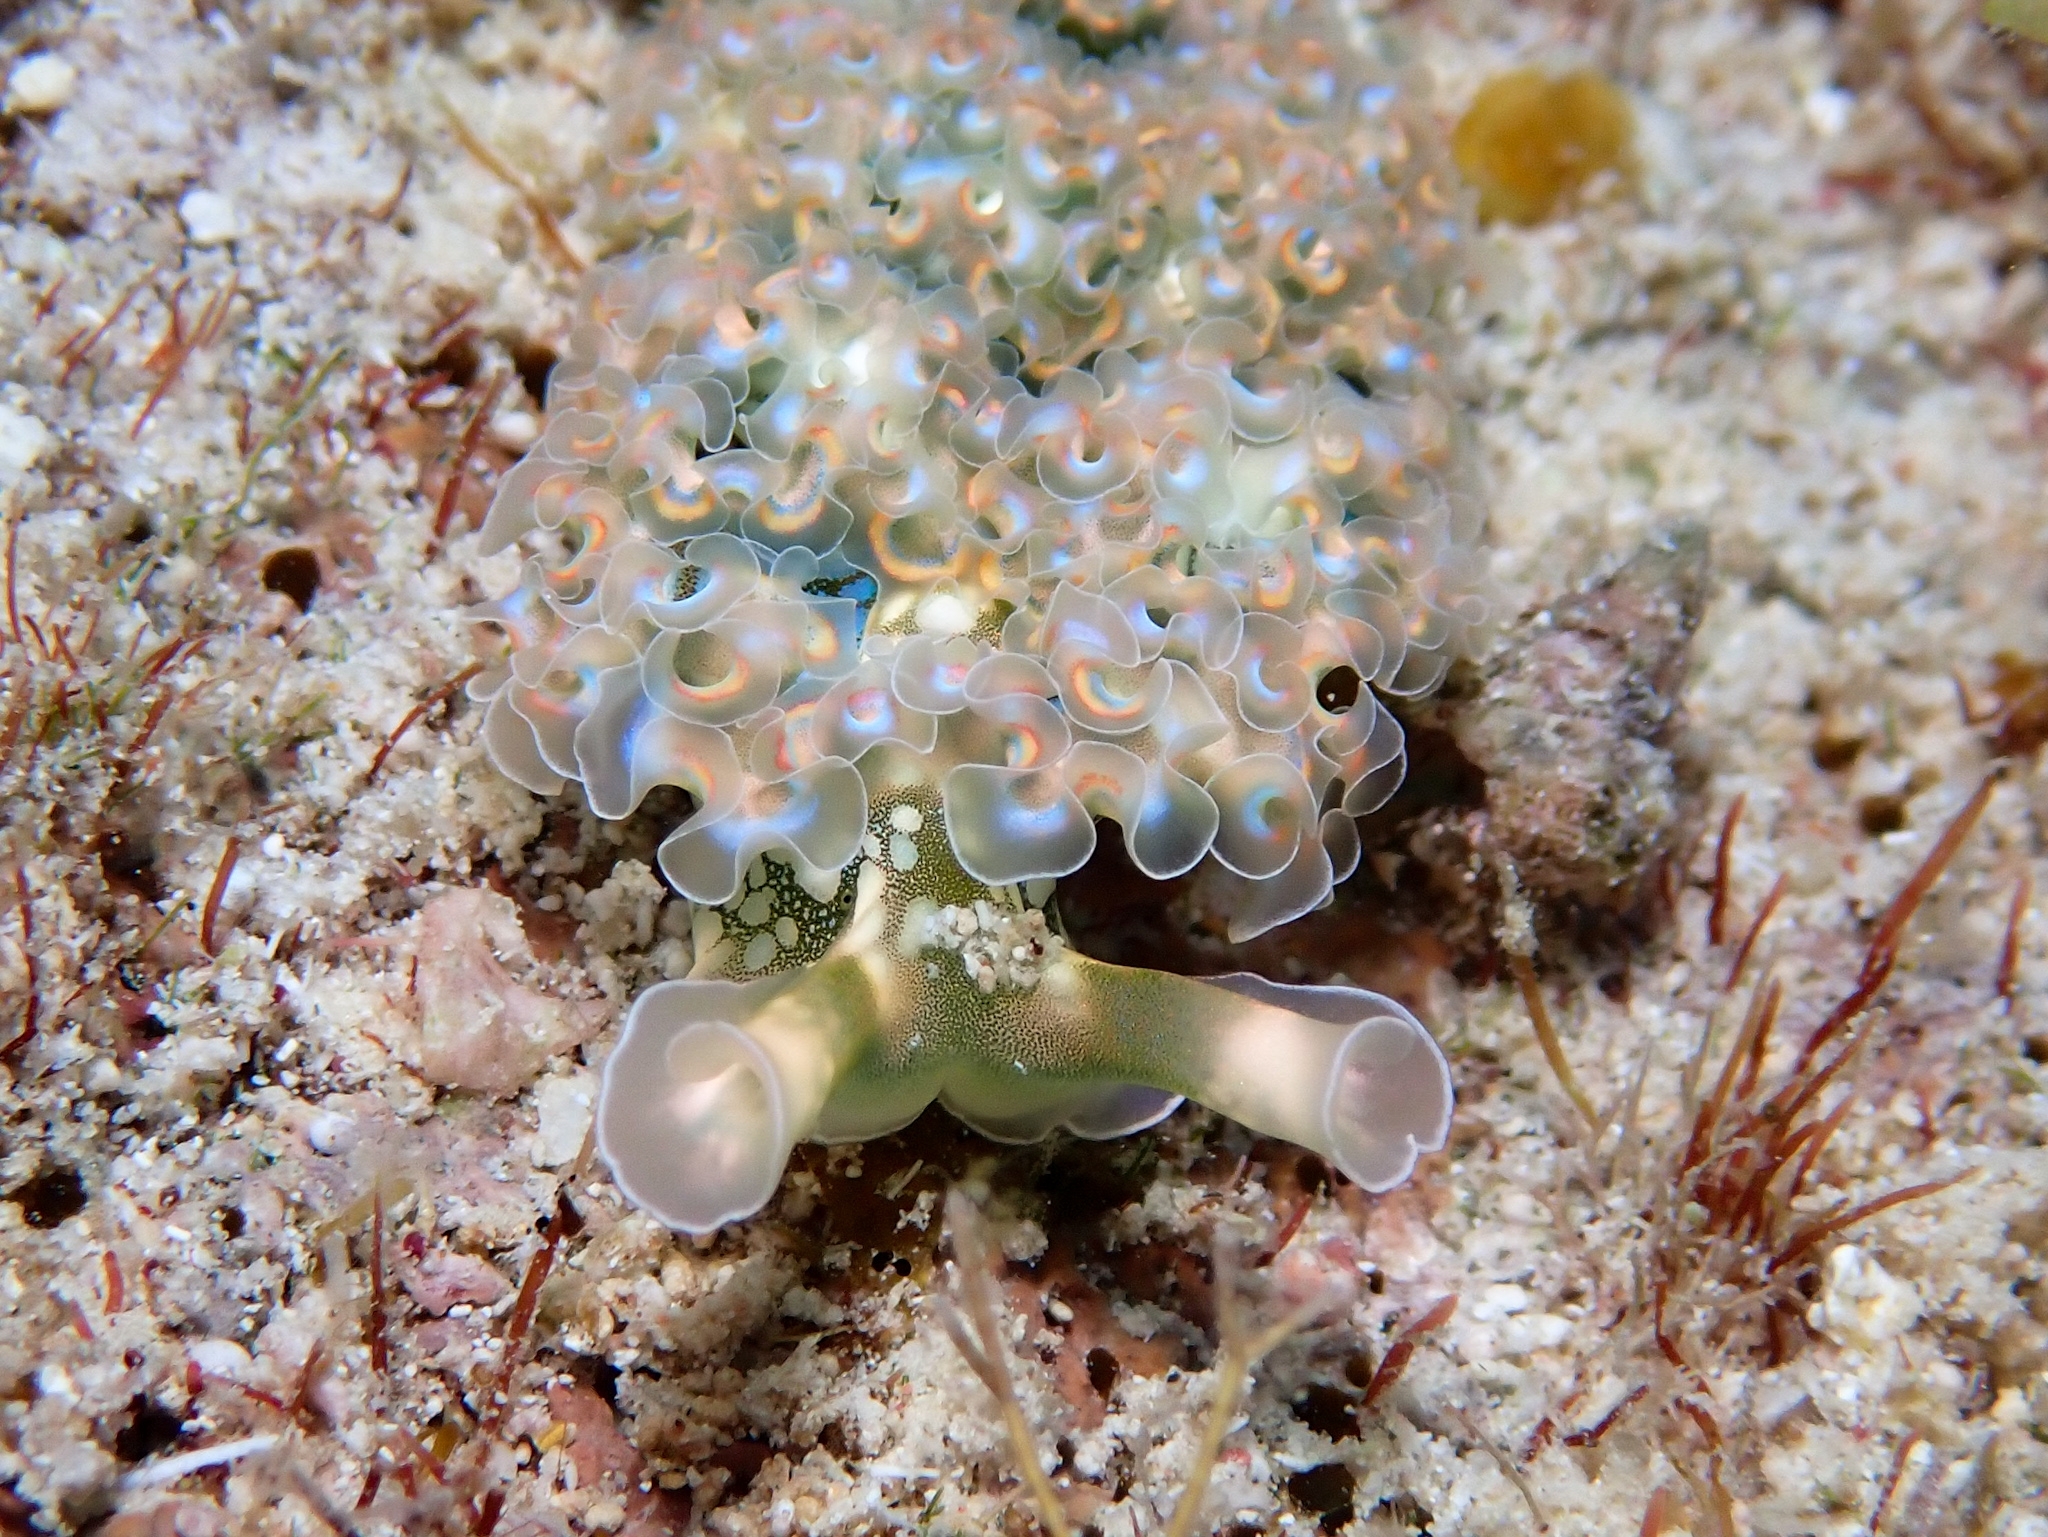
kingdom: Animalia
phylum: Mollusca
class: Gastropoda
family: Plakobranchidae
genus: Elysia
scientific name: Elysia crispata
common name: Lettuce slug
